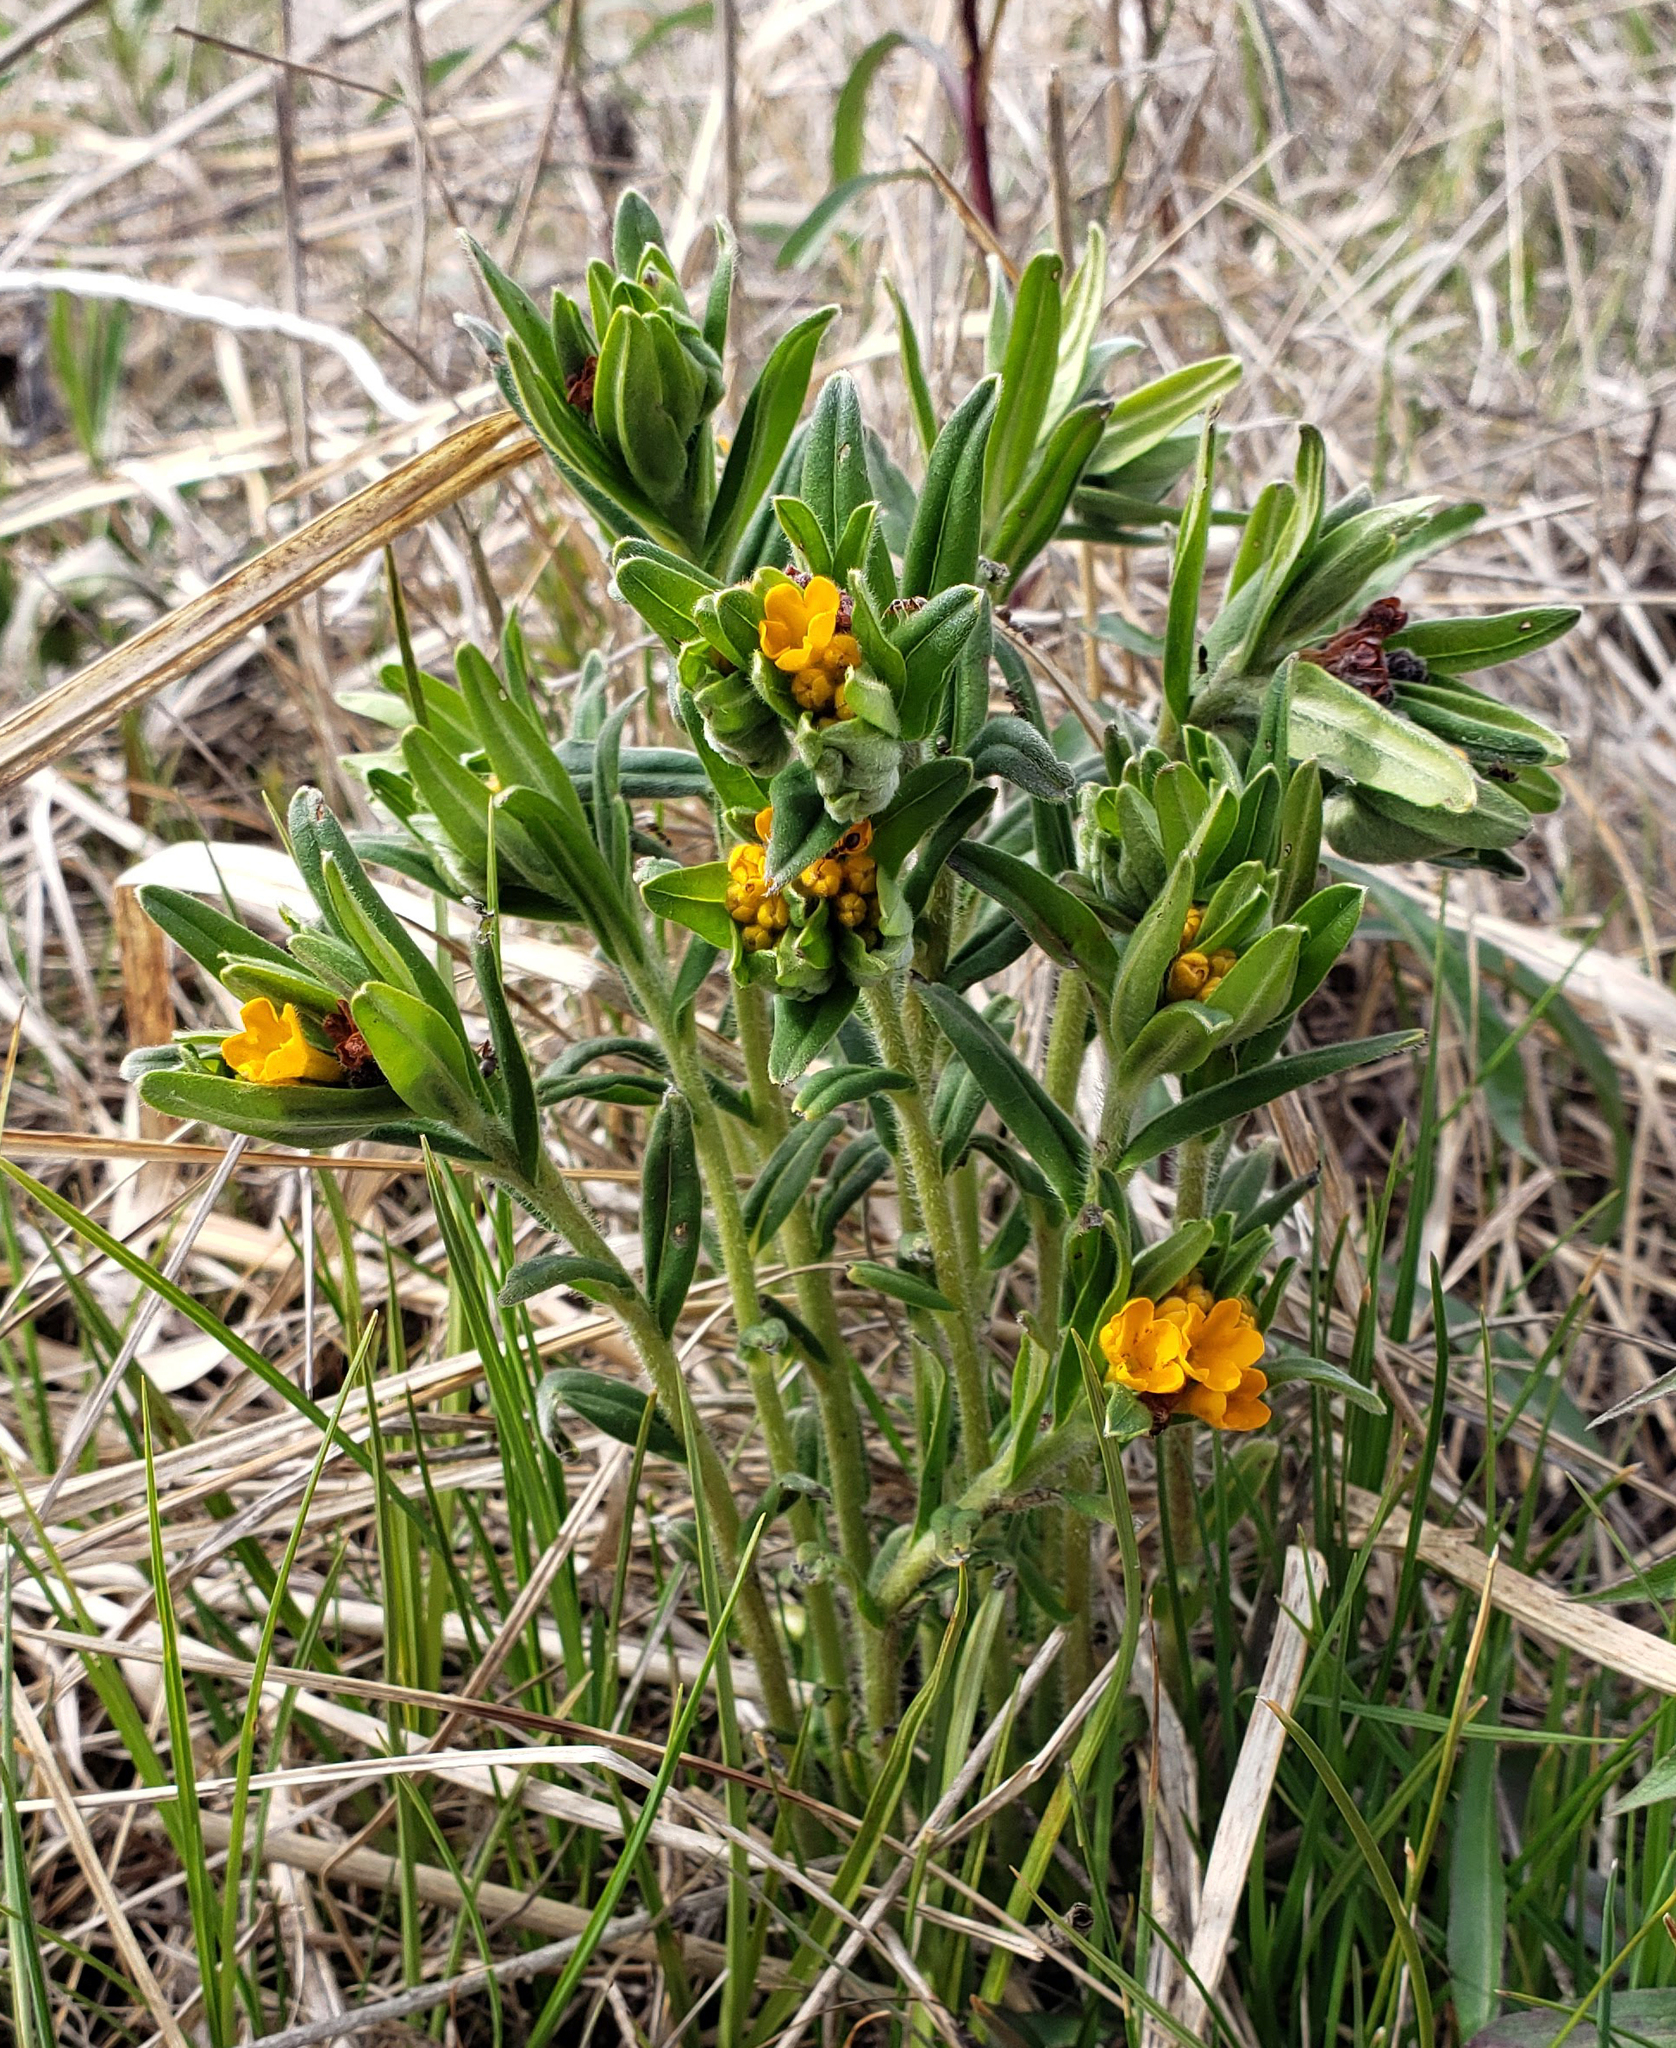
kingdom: Plantae
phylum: Tracheophyta
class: Magnoliopsida
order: Boraginales
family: Boraginaceae
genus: Lithospermum
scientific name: Lithospermum canescens
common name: Hoary puccoon
